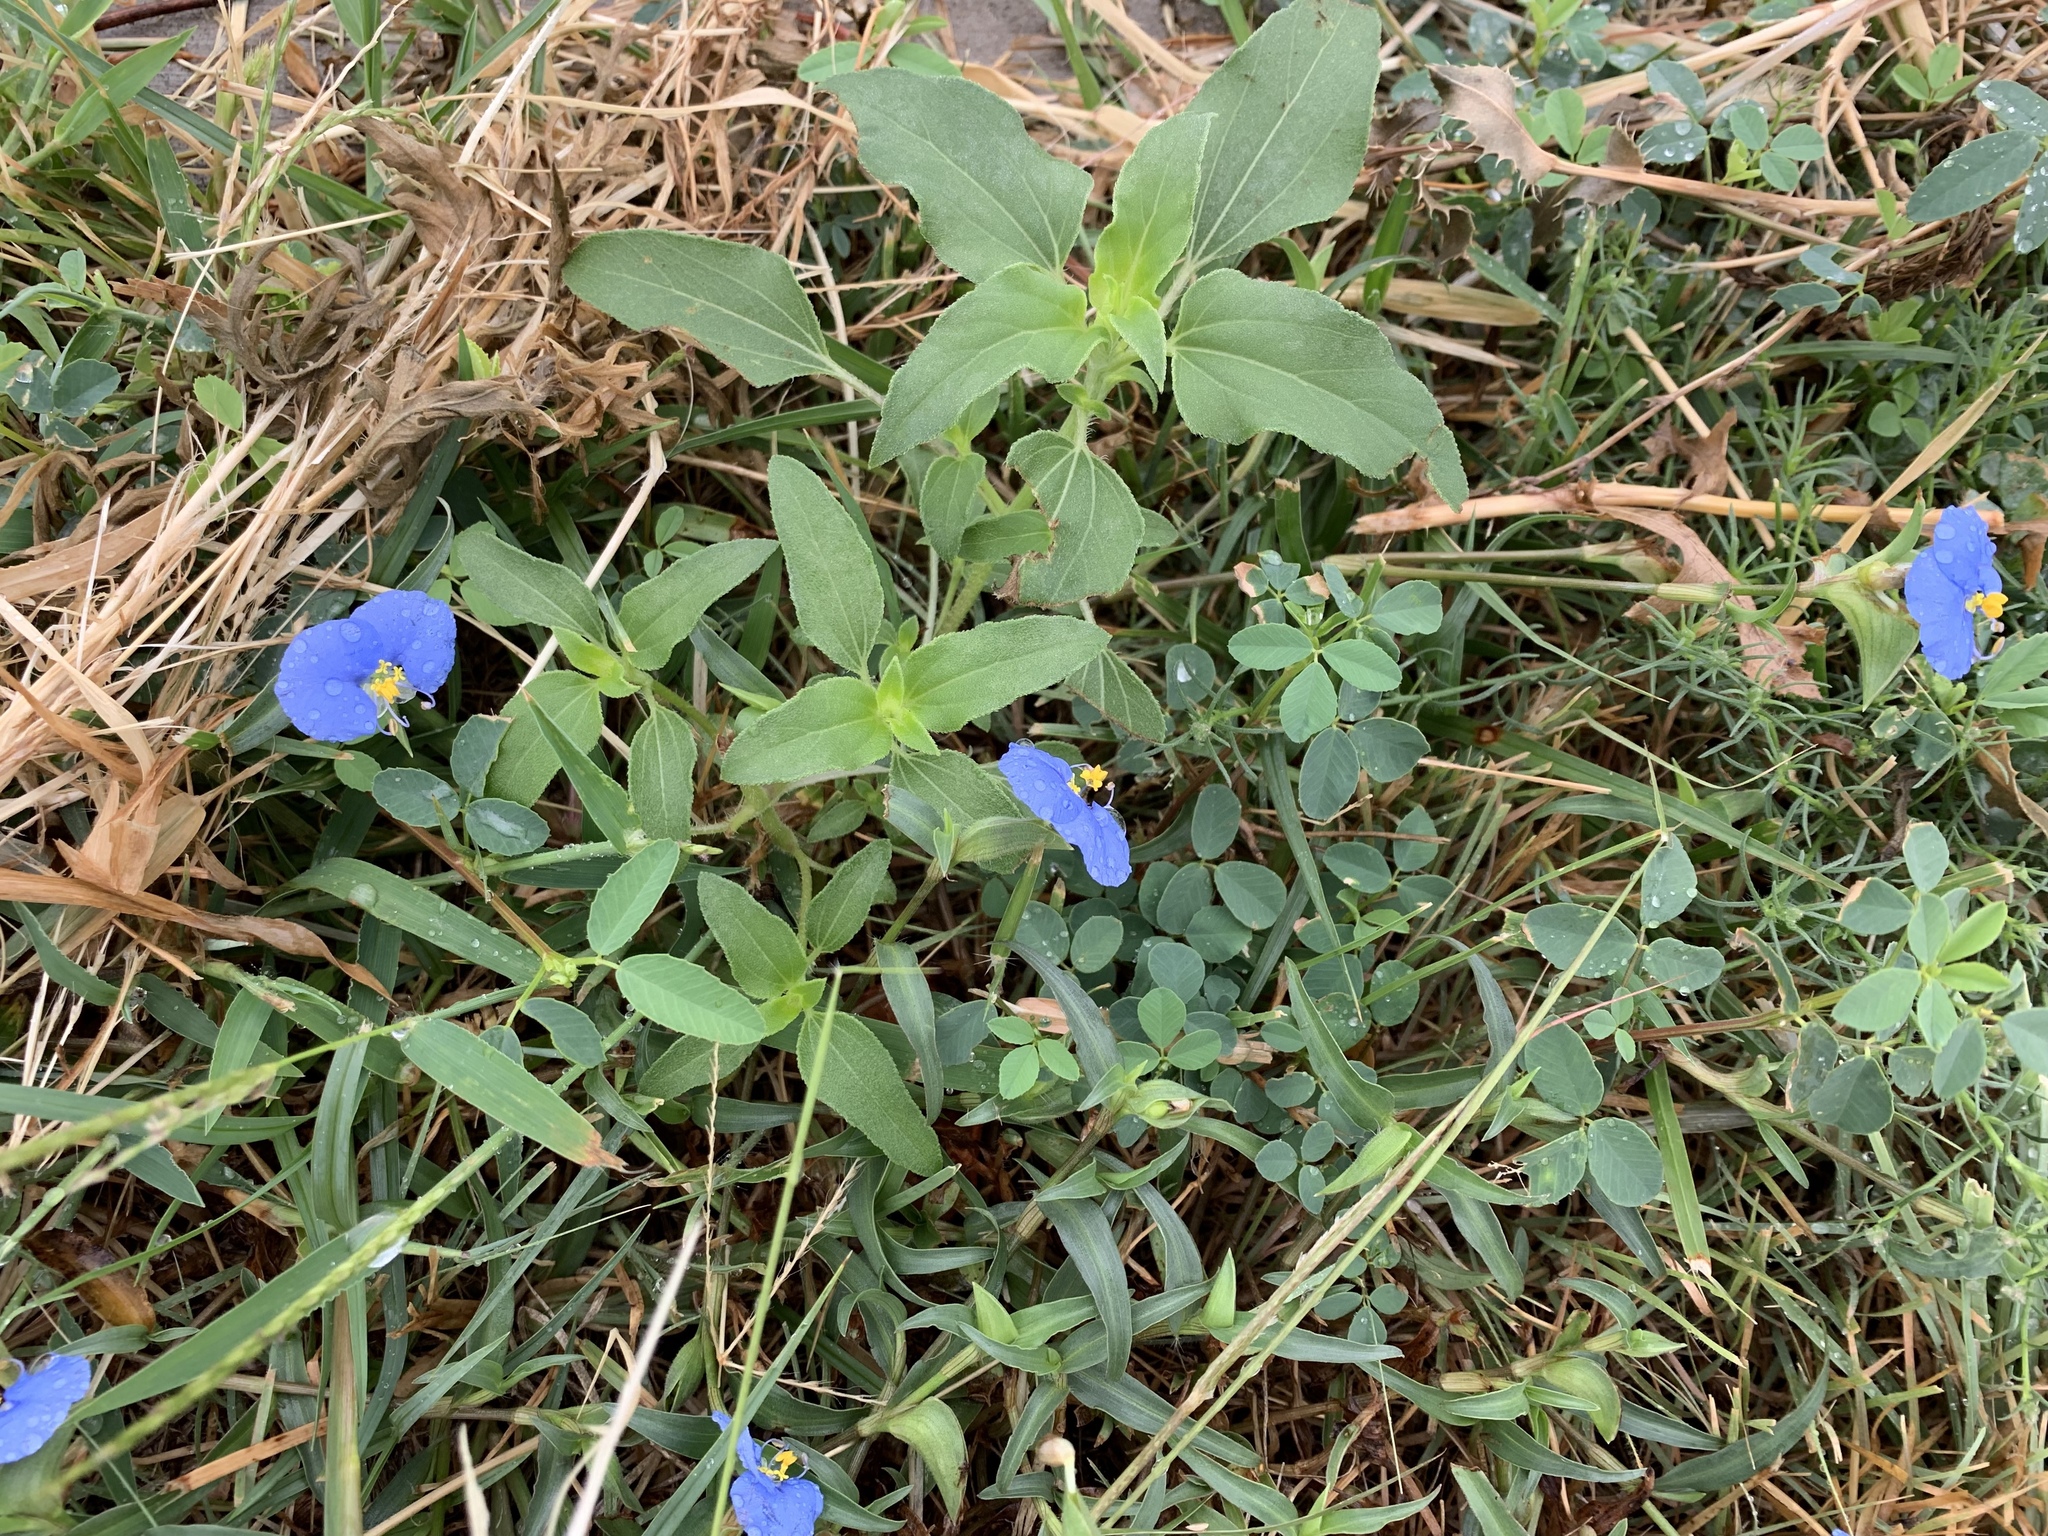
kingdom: Plantae
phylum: Tracheophyta
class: Liliopsida
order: Commelinales
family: Commelinaceae
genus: Commelina
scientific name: Commelina erecta
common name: Blousel blommetjie
